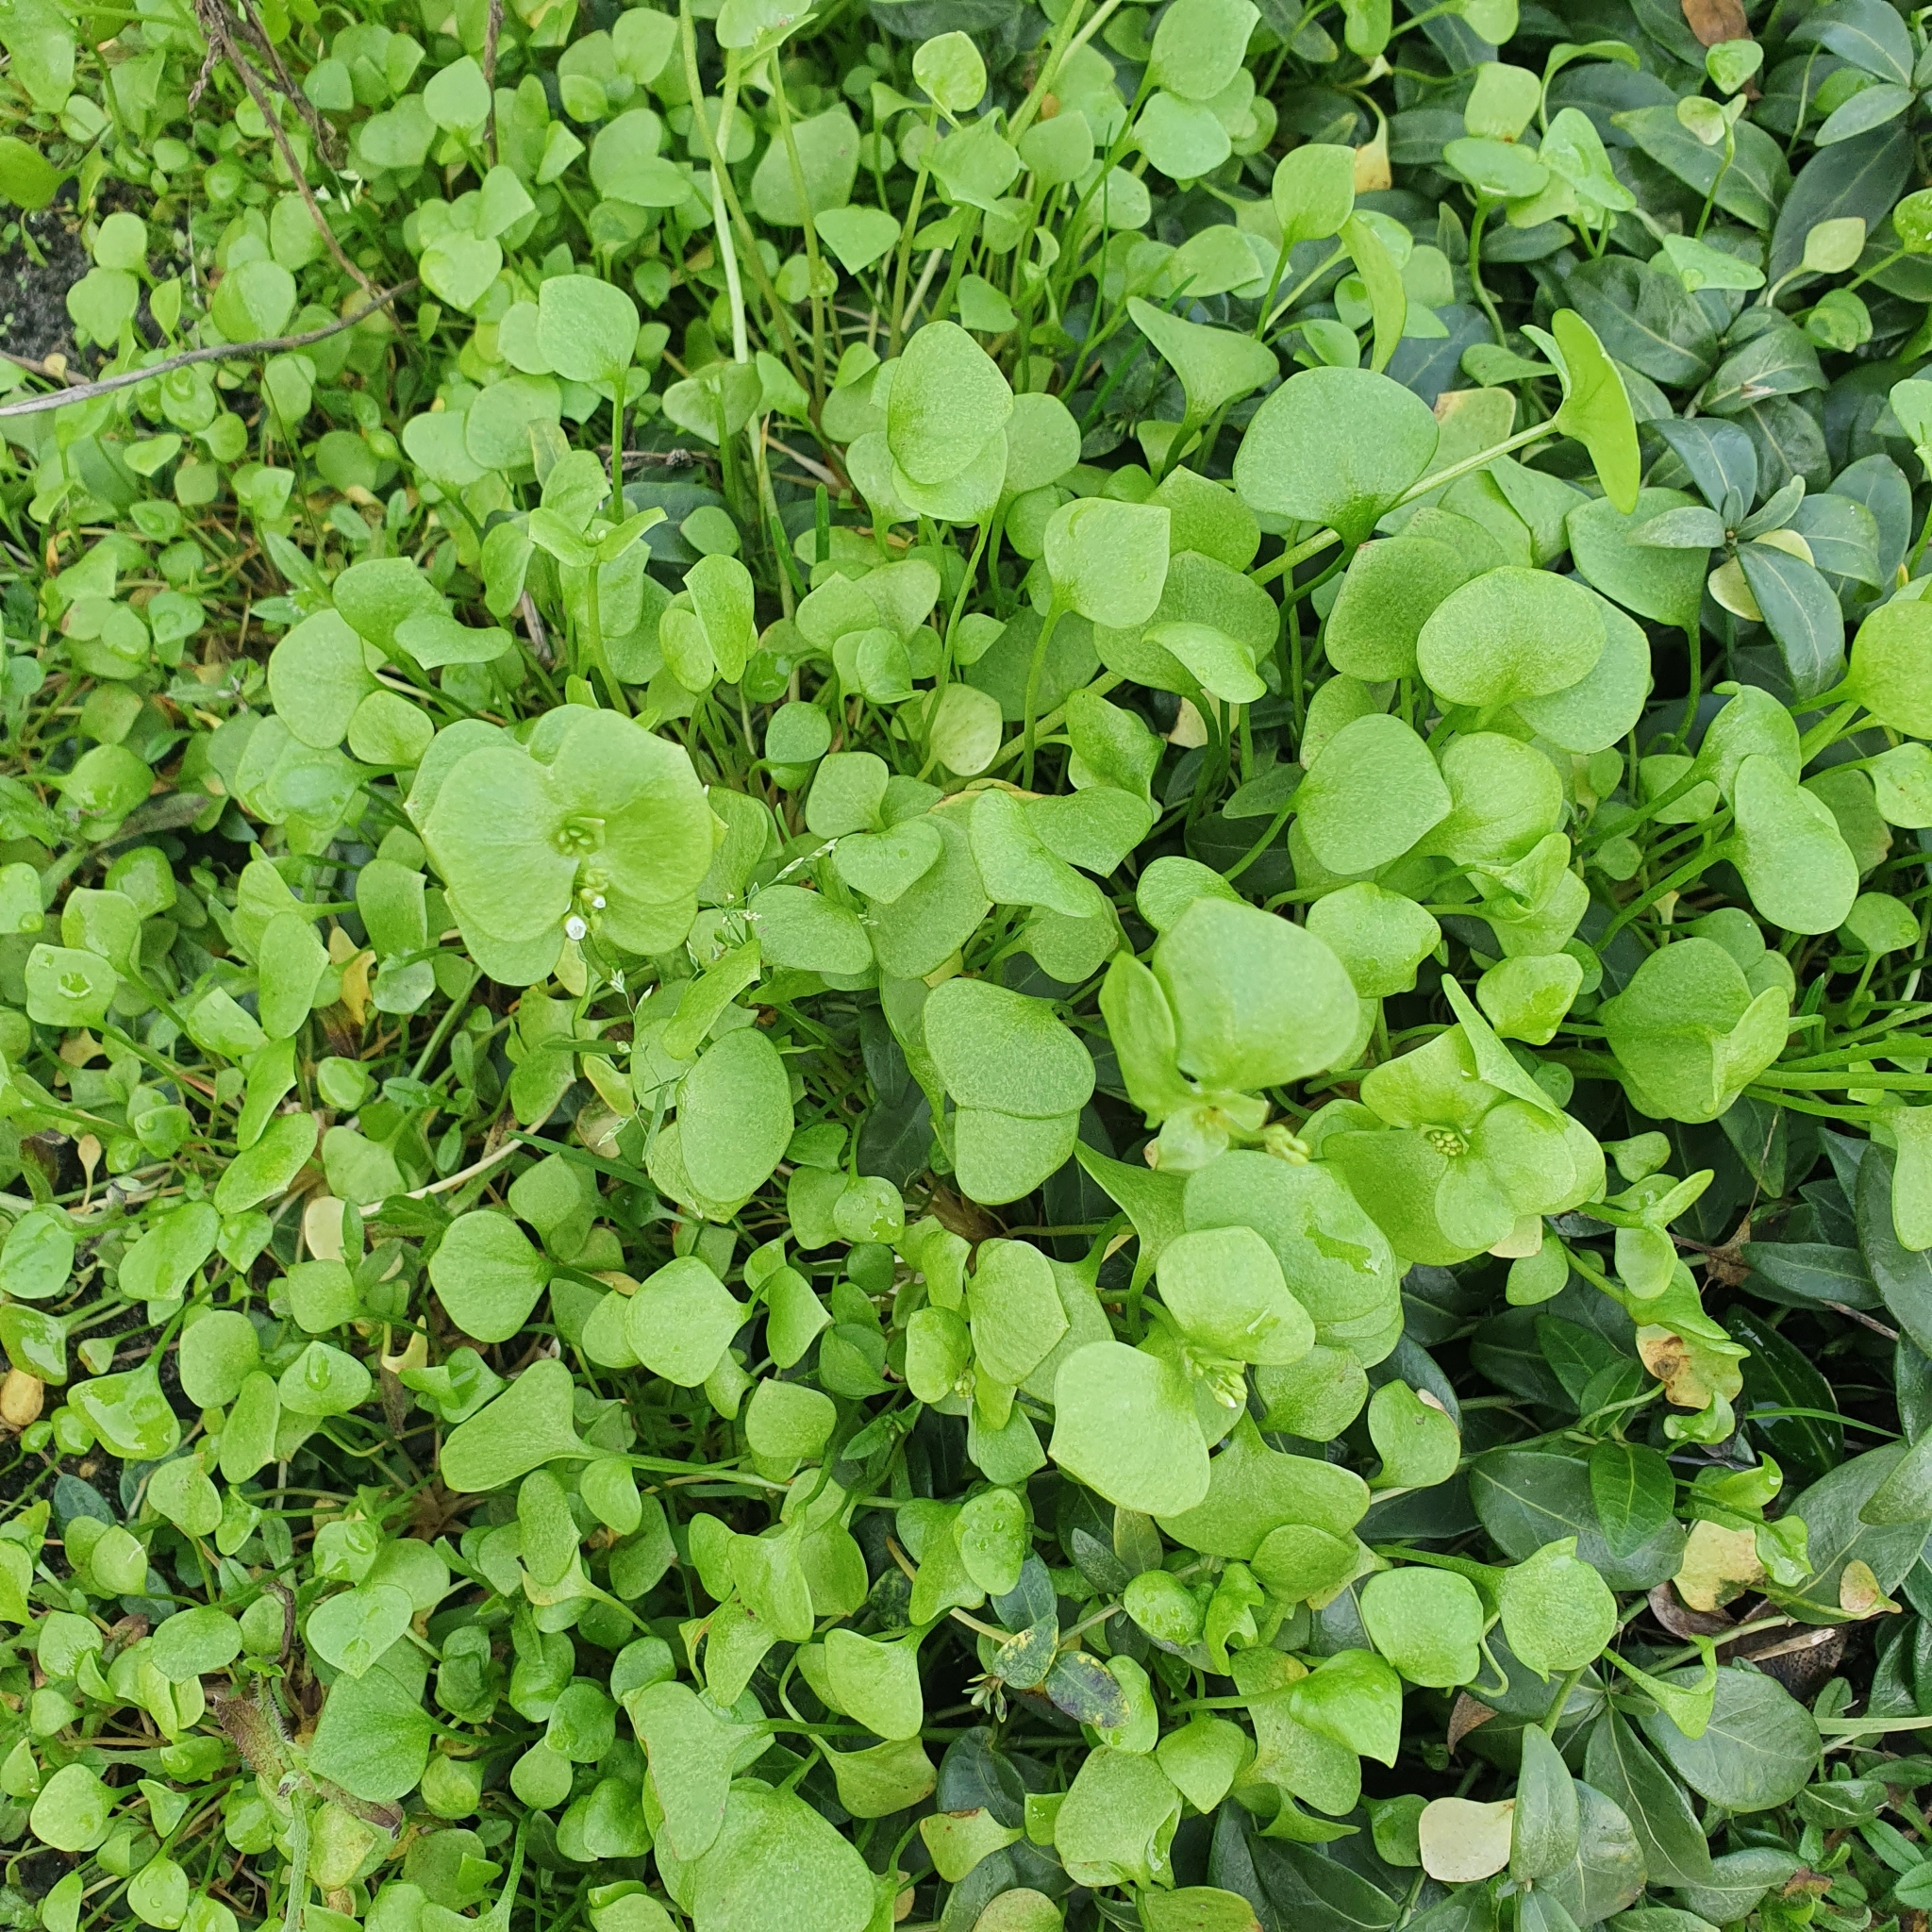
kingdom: Plantae
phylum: Tracheophyta
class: Magnoliopsida
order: Caryophyllales
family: Montiaceae
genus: Claytonia
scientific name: Claytonia perfoliata
